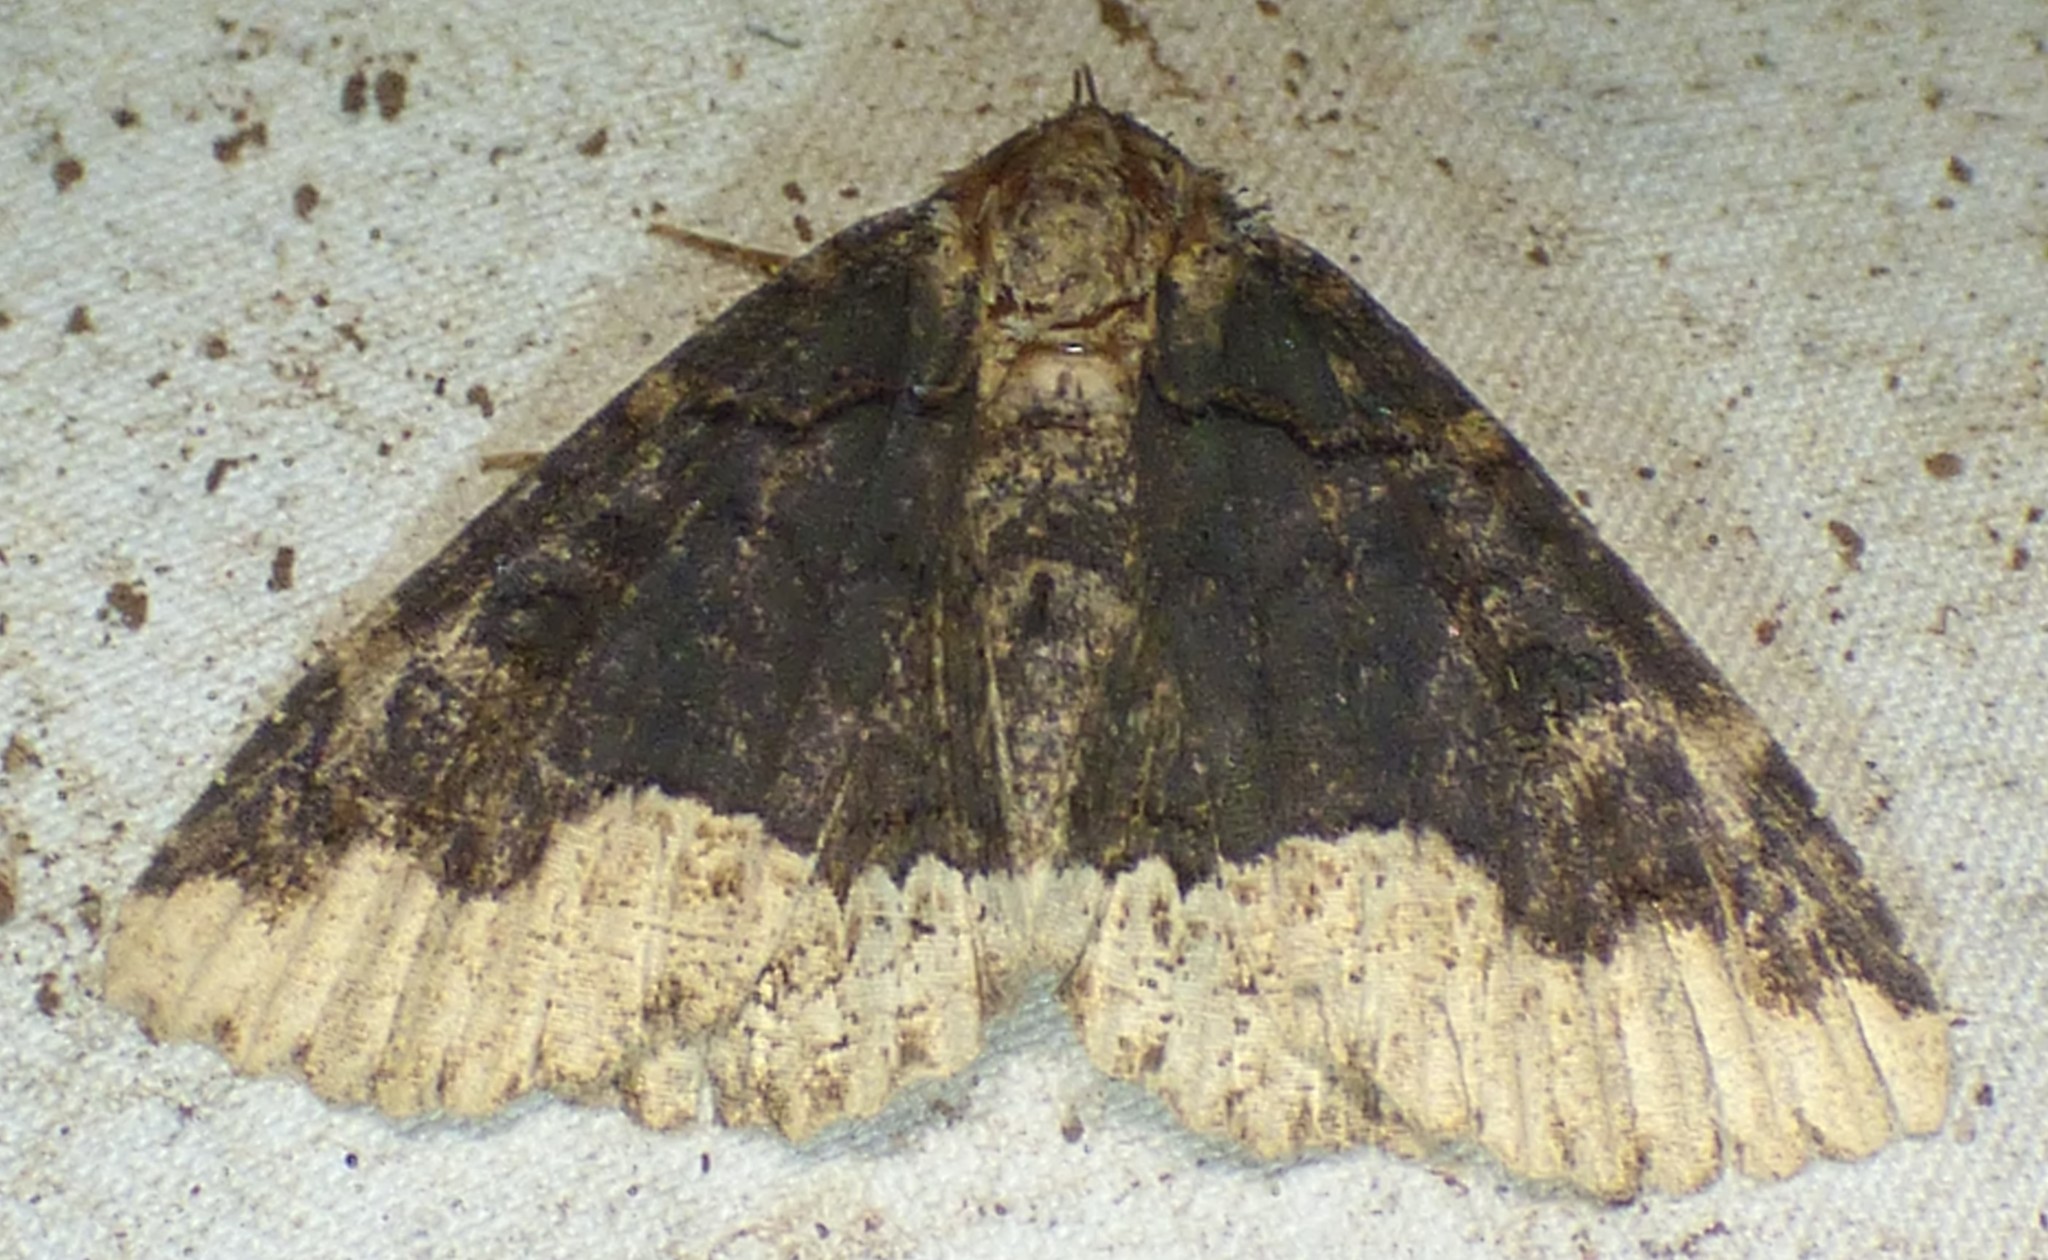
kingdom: Animalia
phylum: Arthropoda
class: Insecta
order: Lepidoptera
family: Erebidae
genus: Zale
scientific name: Zale horrida
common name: Horrid zale moth
